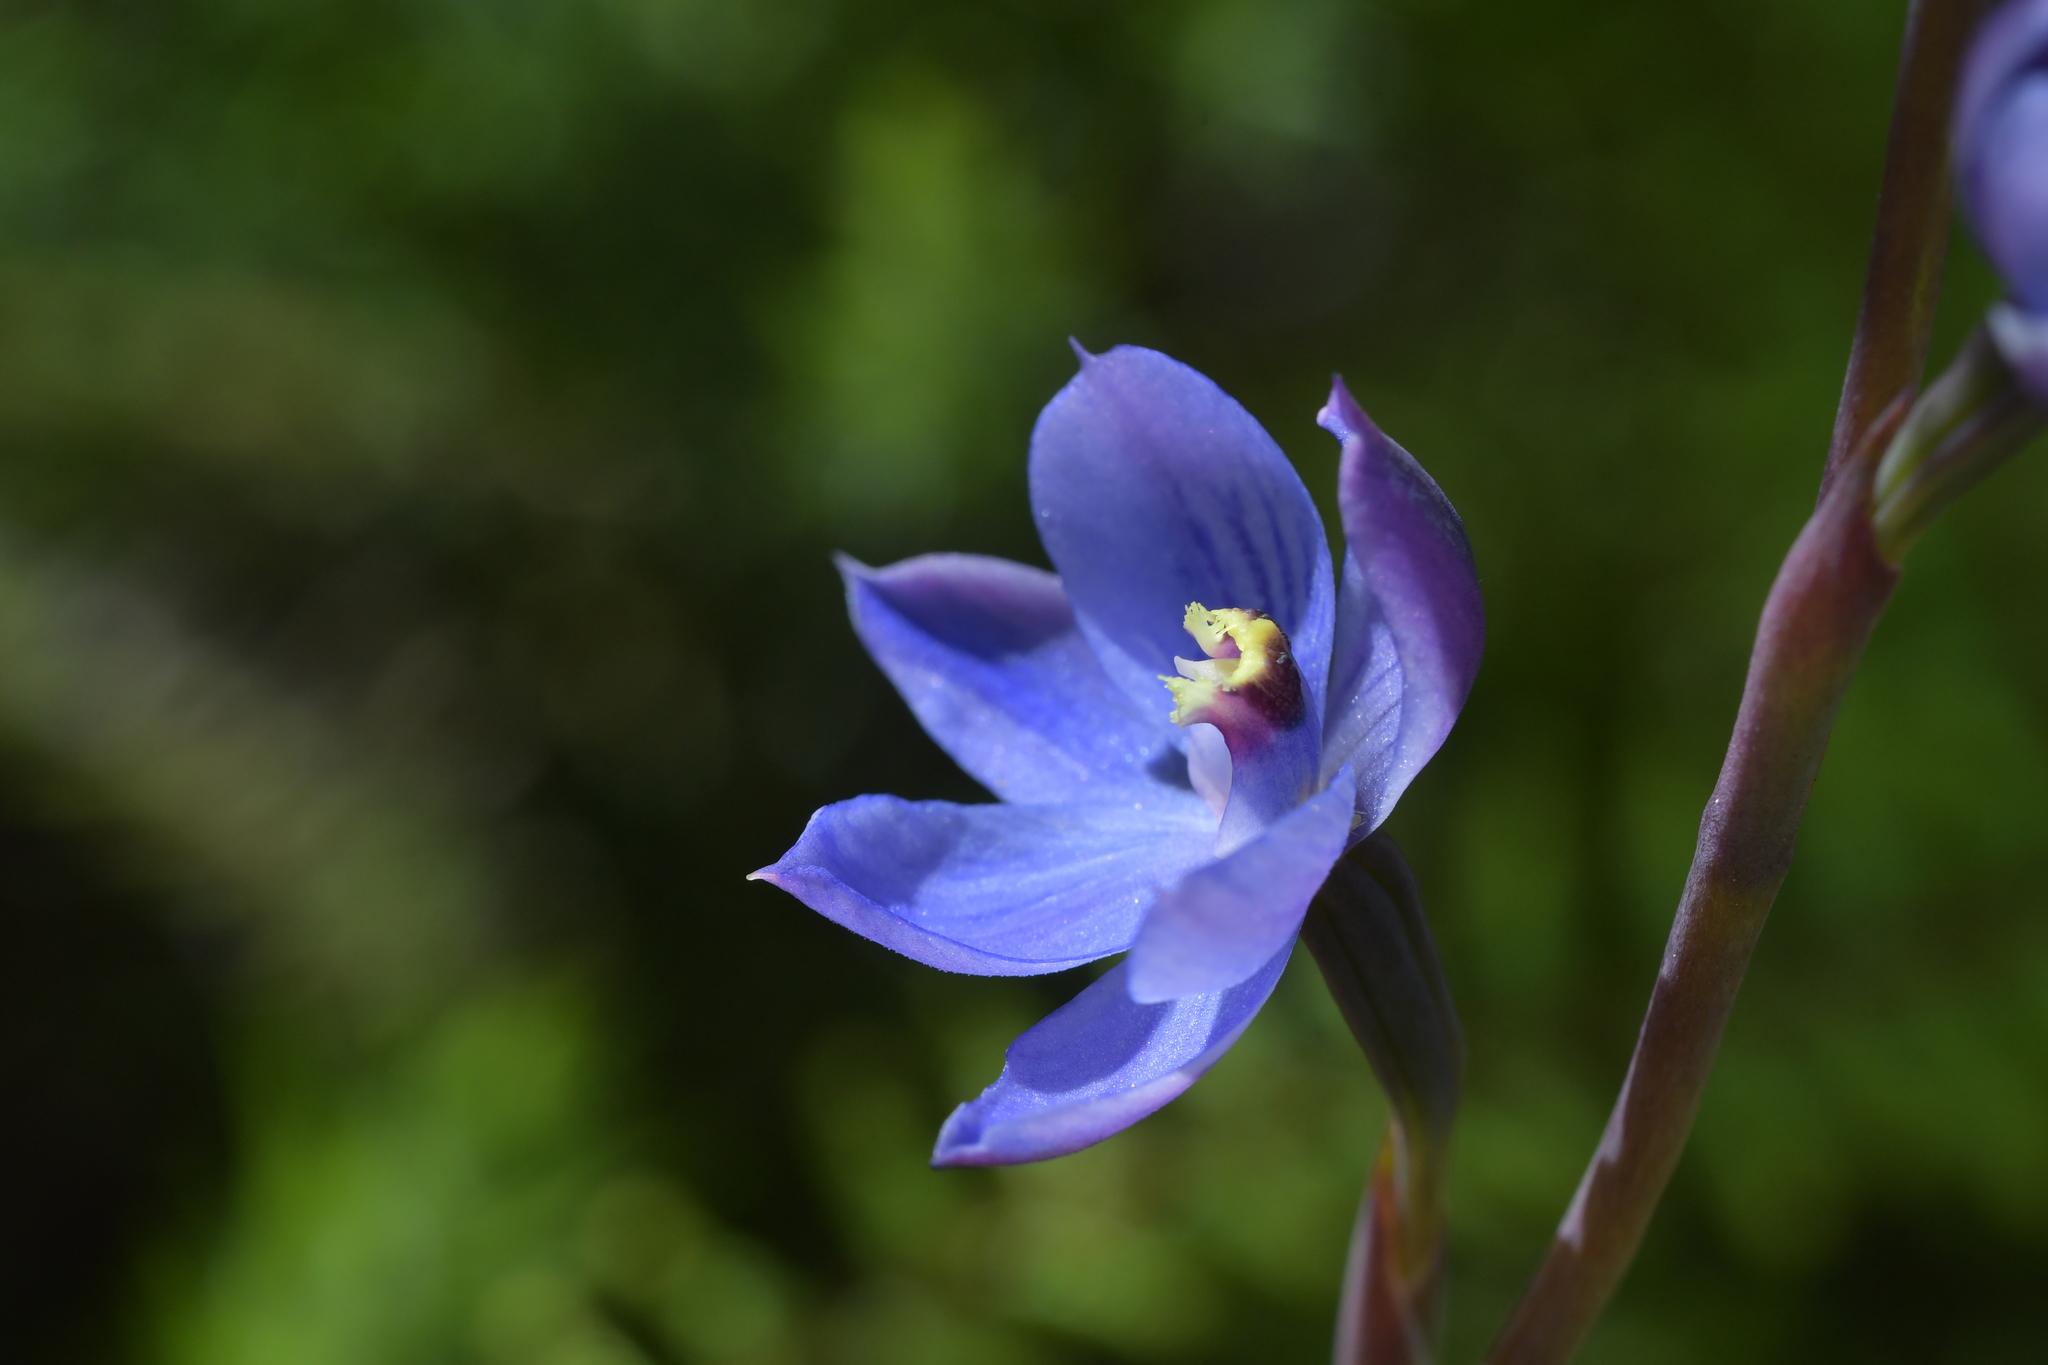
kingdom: Plantae
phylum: Tracheophyta
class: Liliopsida
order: Asparagales
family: Orchidaceae
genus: Thelymitra
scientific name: Thelymitra pulchella
